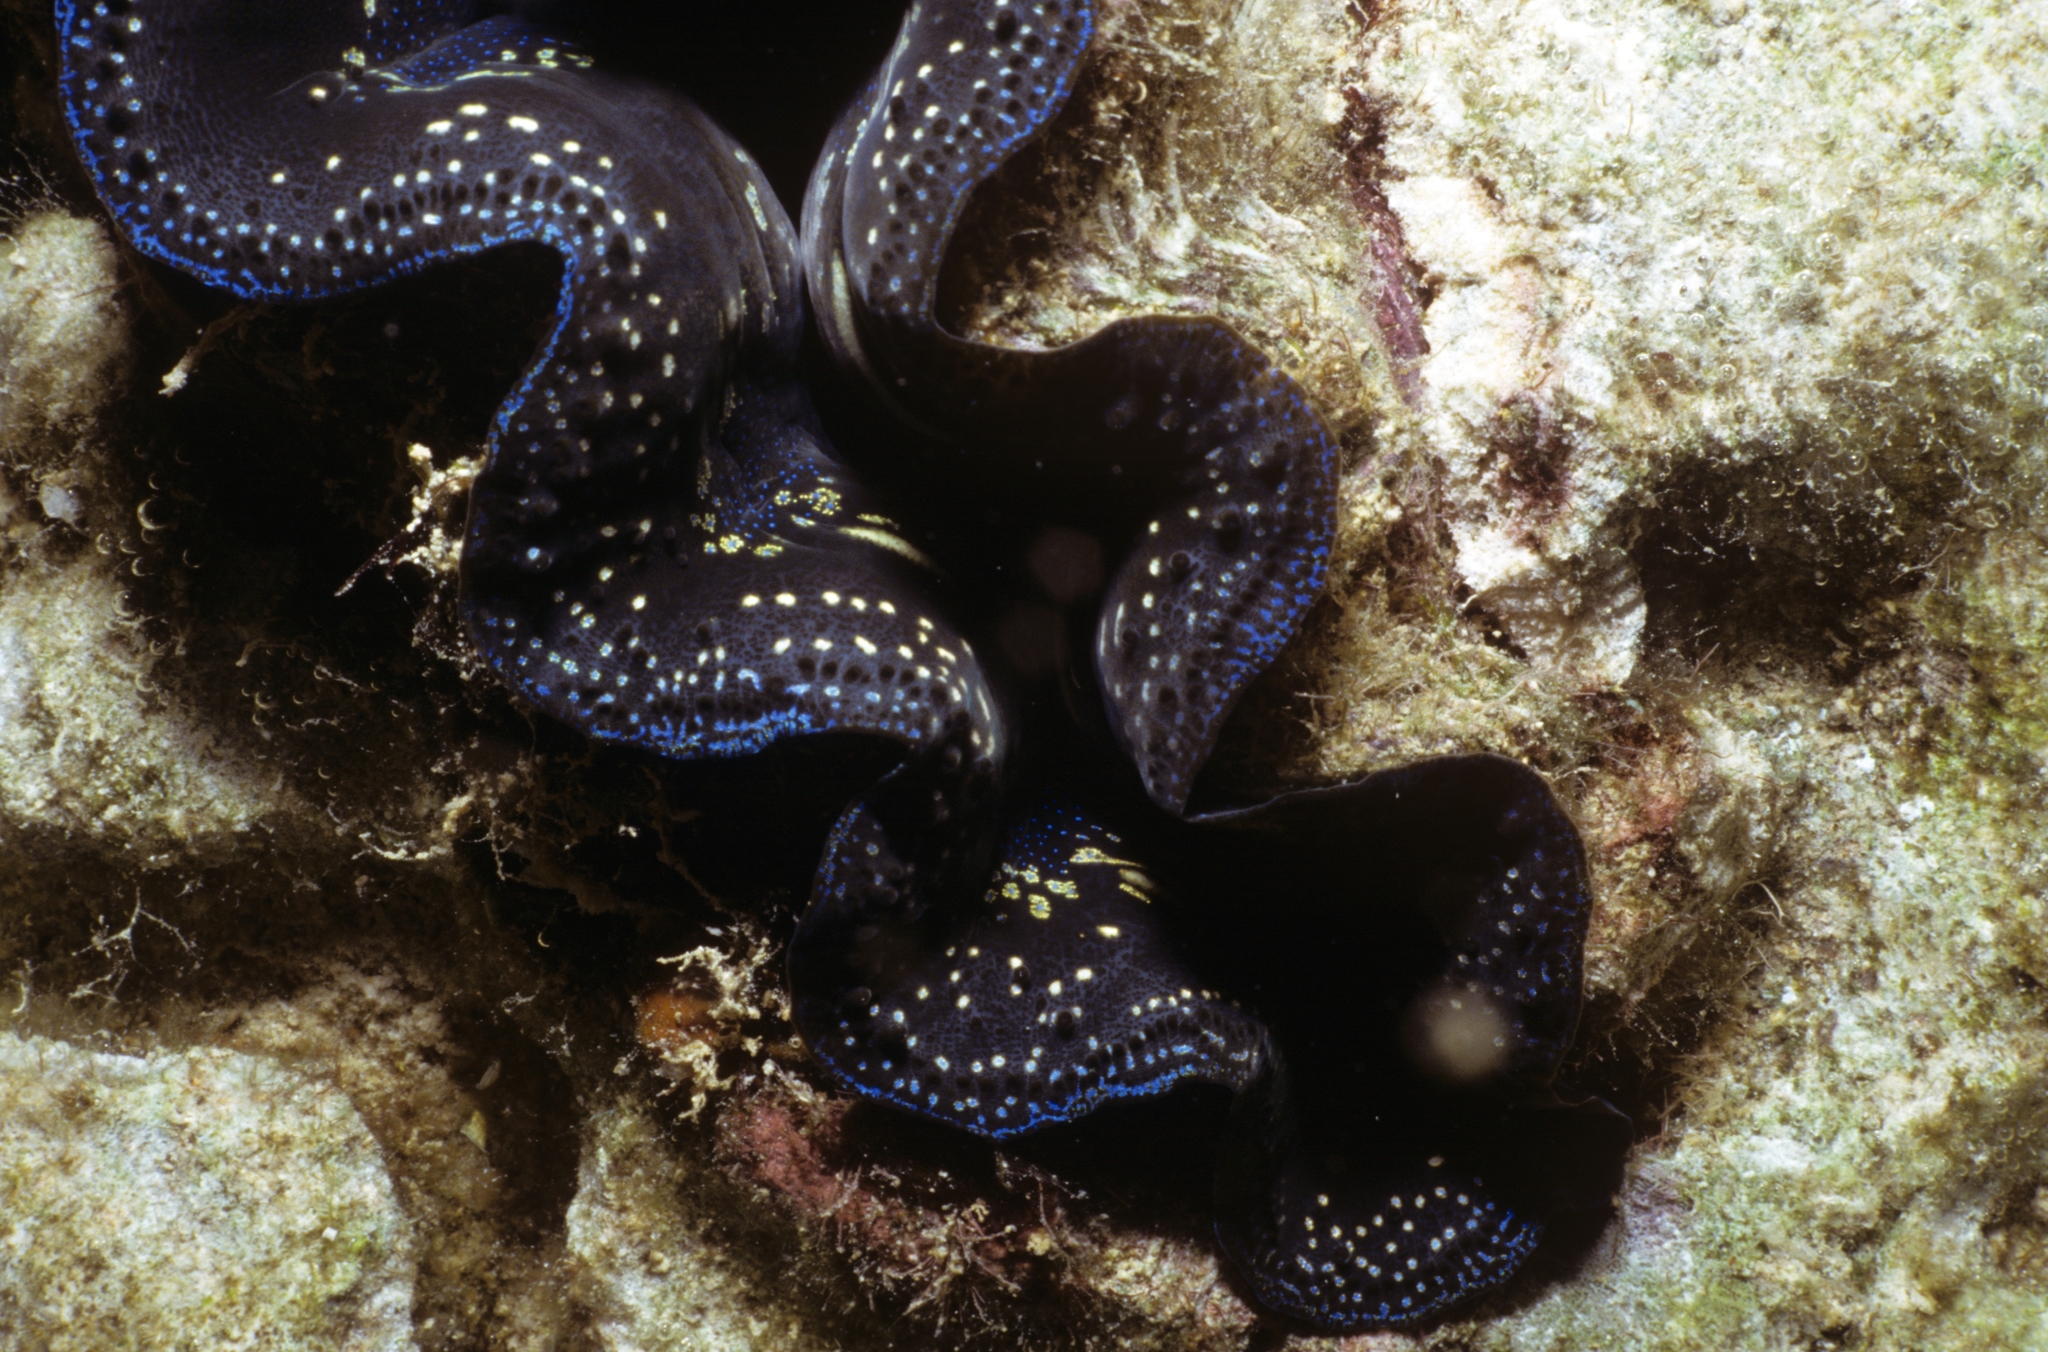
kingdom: Animalia
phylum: Mollusca
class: Bivalvia
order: Cardiida
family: Cardiidae
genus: Tridacna
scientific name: Tridacna maxima
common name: Small giant clam
